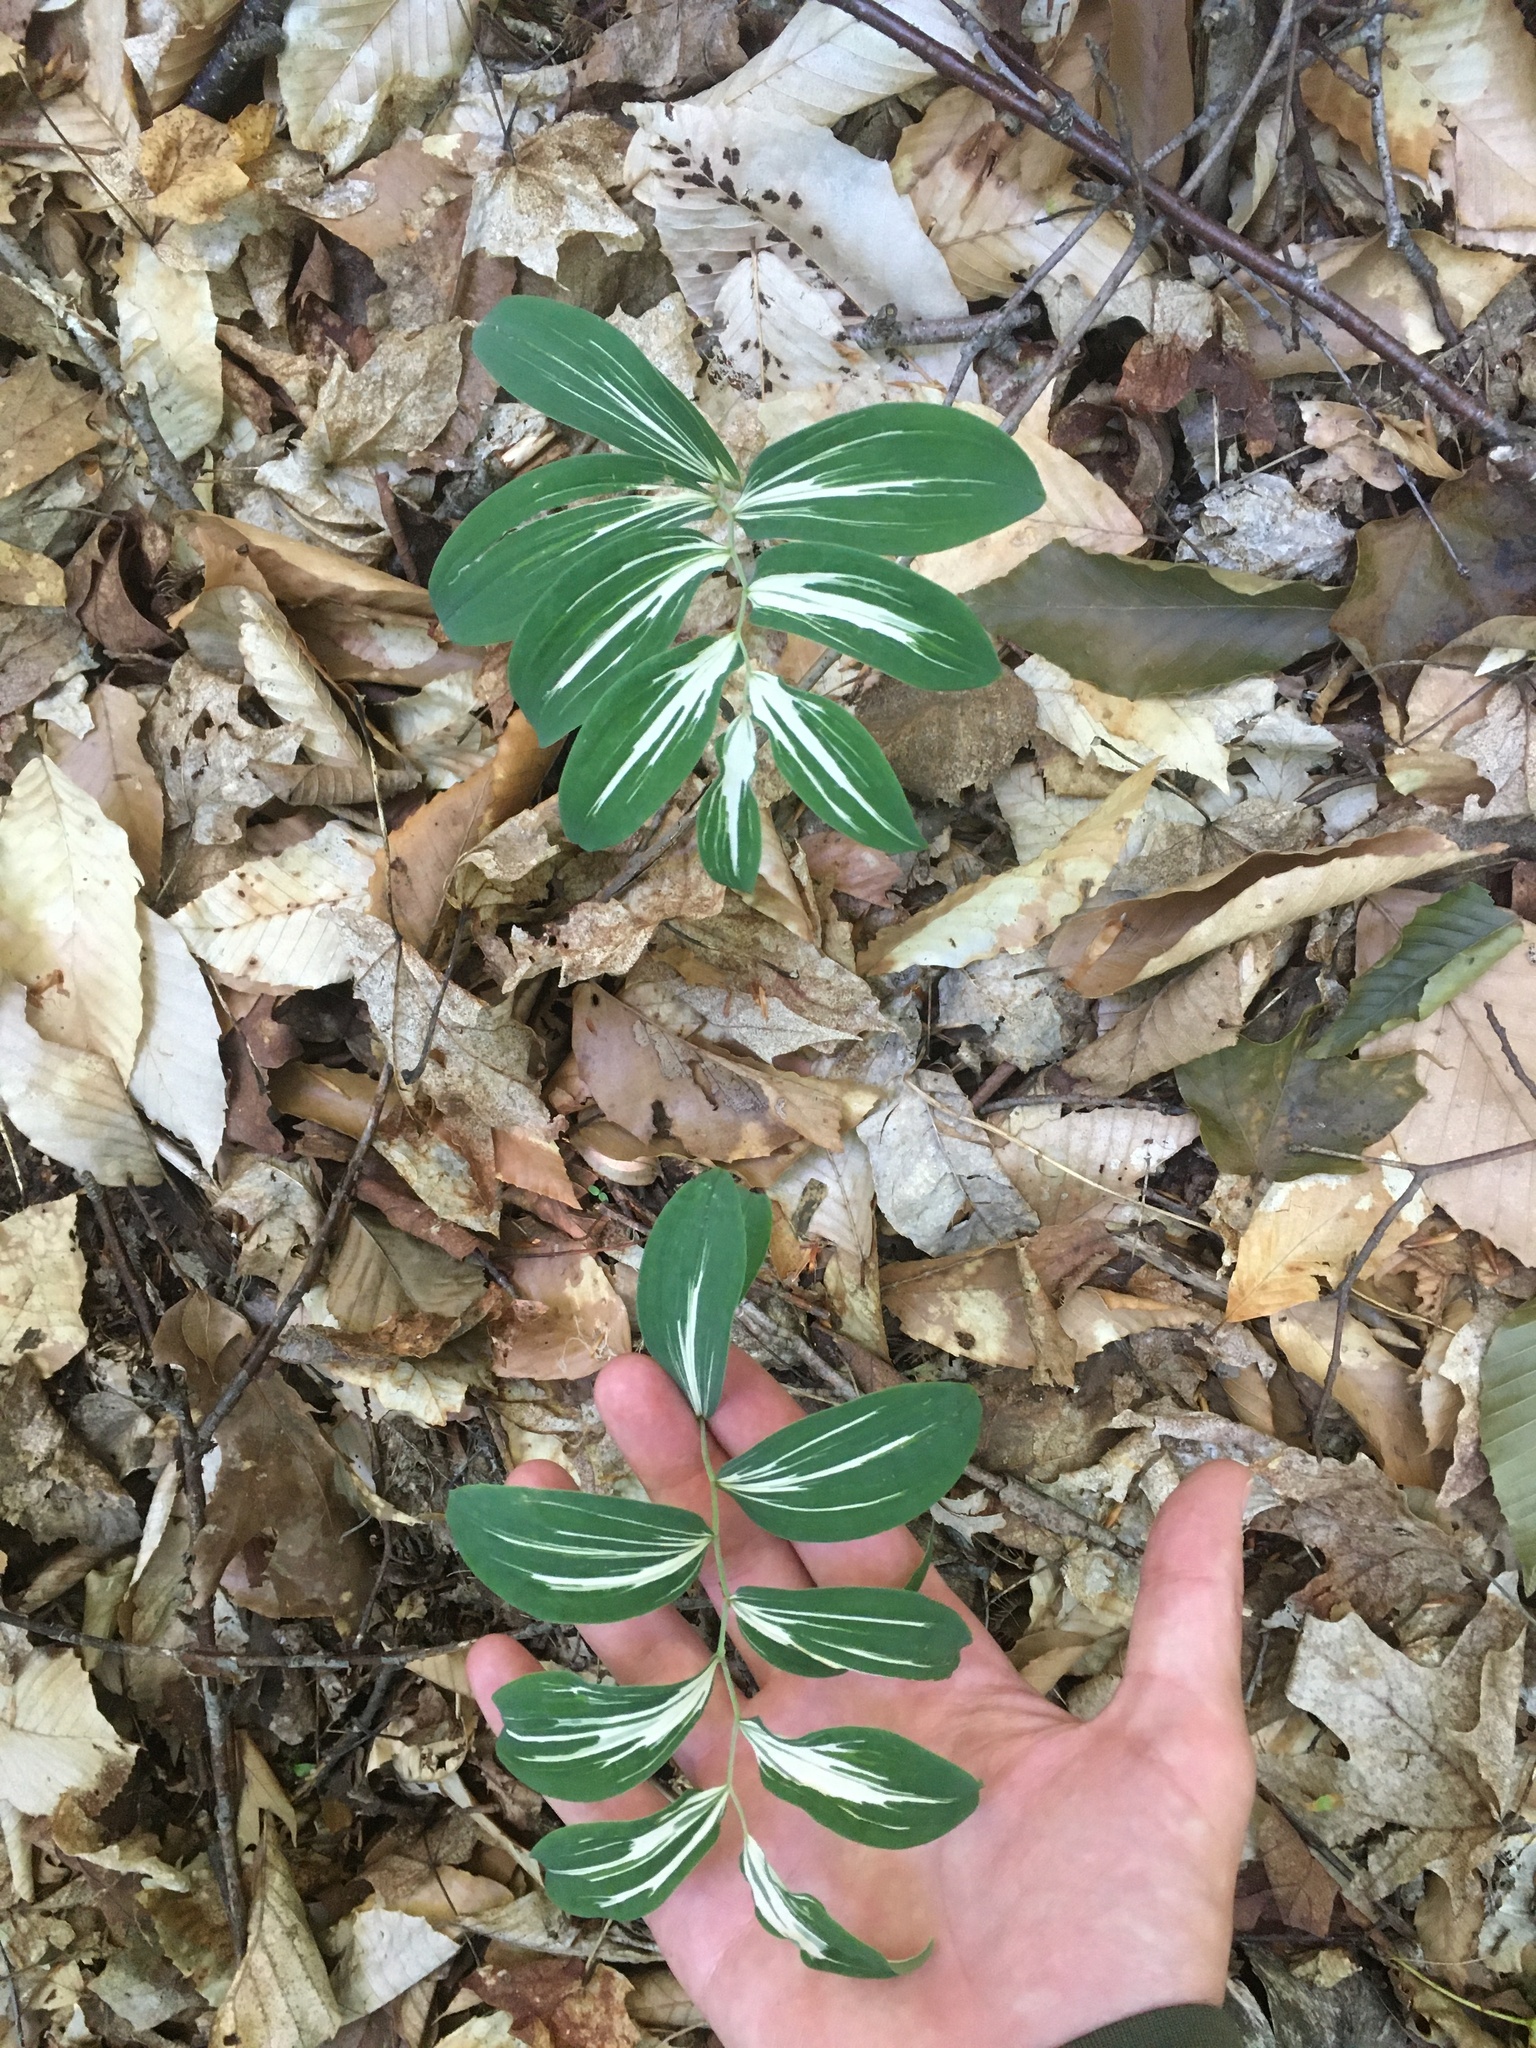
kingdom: Plantae
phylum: Tracheophyta
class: Liliopsida
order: Liliales
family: Colchicaceae
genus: Uvularia
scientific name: Uvularia sessilifolia
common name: Straw-lily
